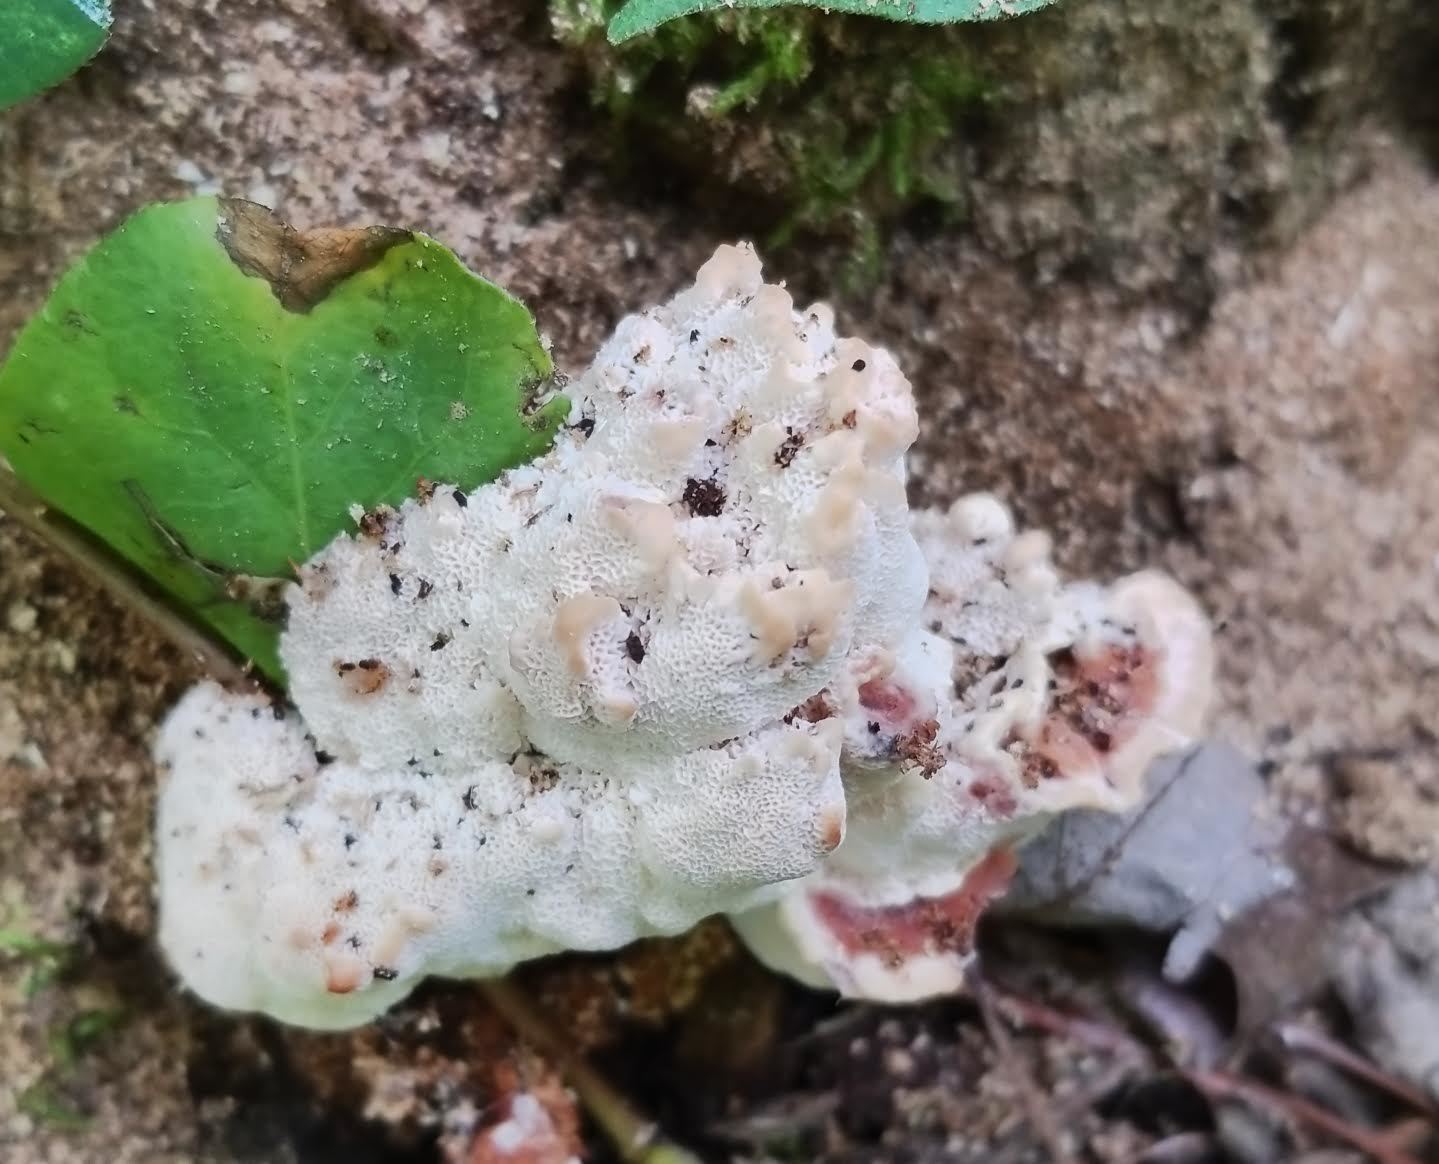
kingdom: Fungi
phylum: Basidiomycota
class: Agaricomycetes
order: Polyporales
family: Podoscyphaceae
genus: Abortiporus
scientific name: Abortiporus biennis
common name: Blushing rosette
